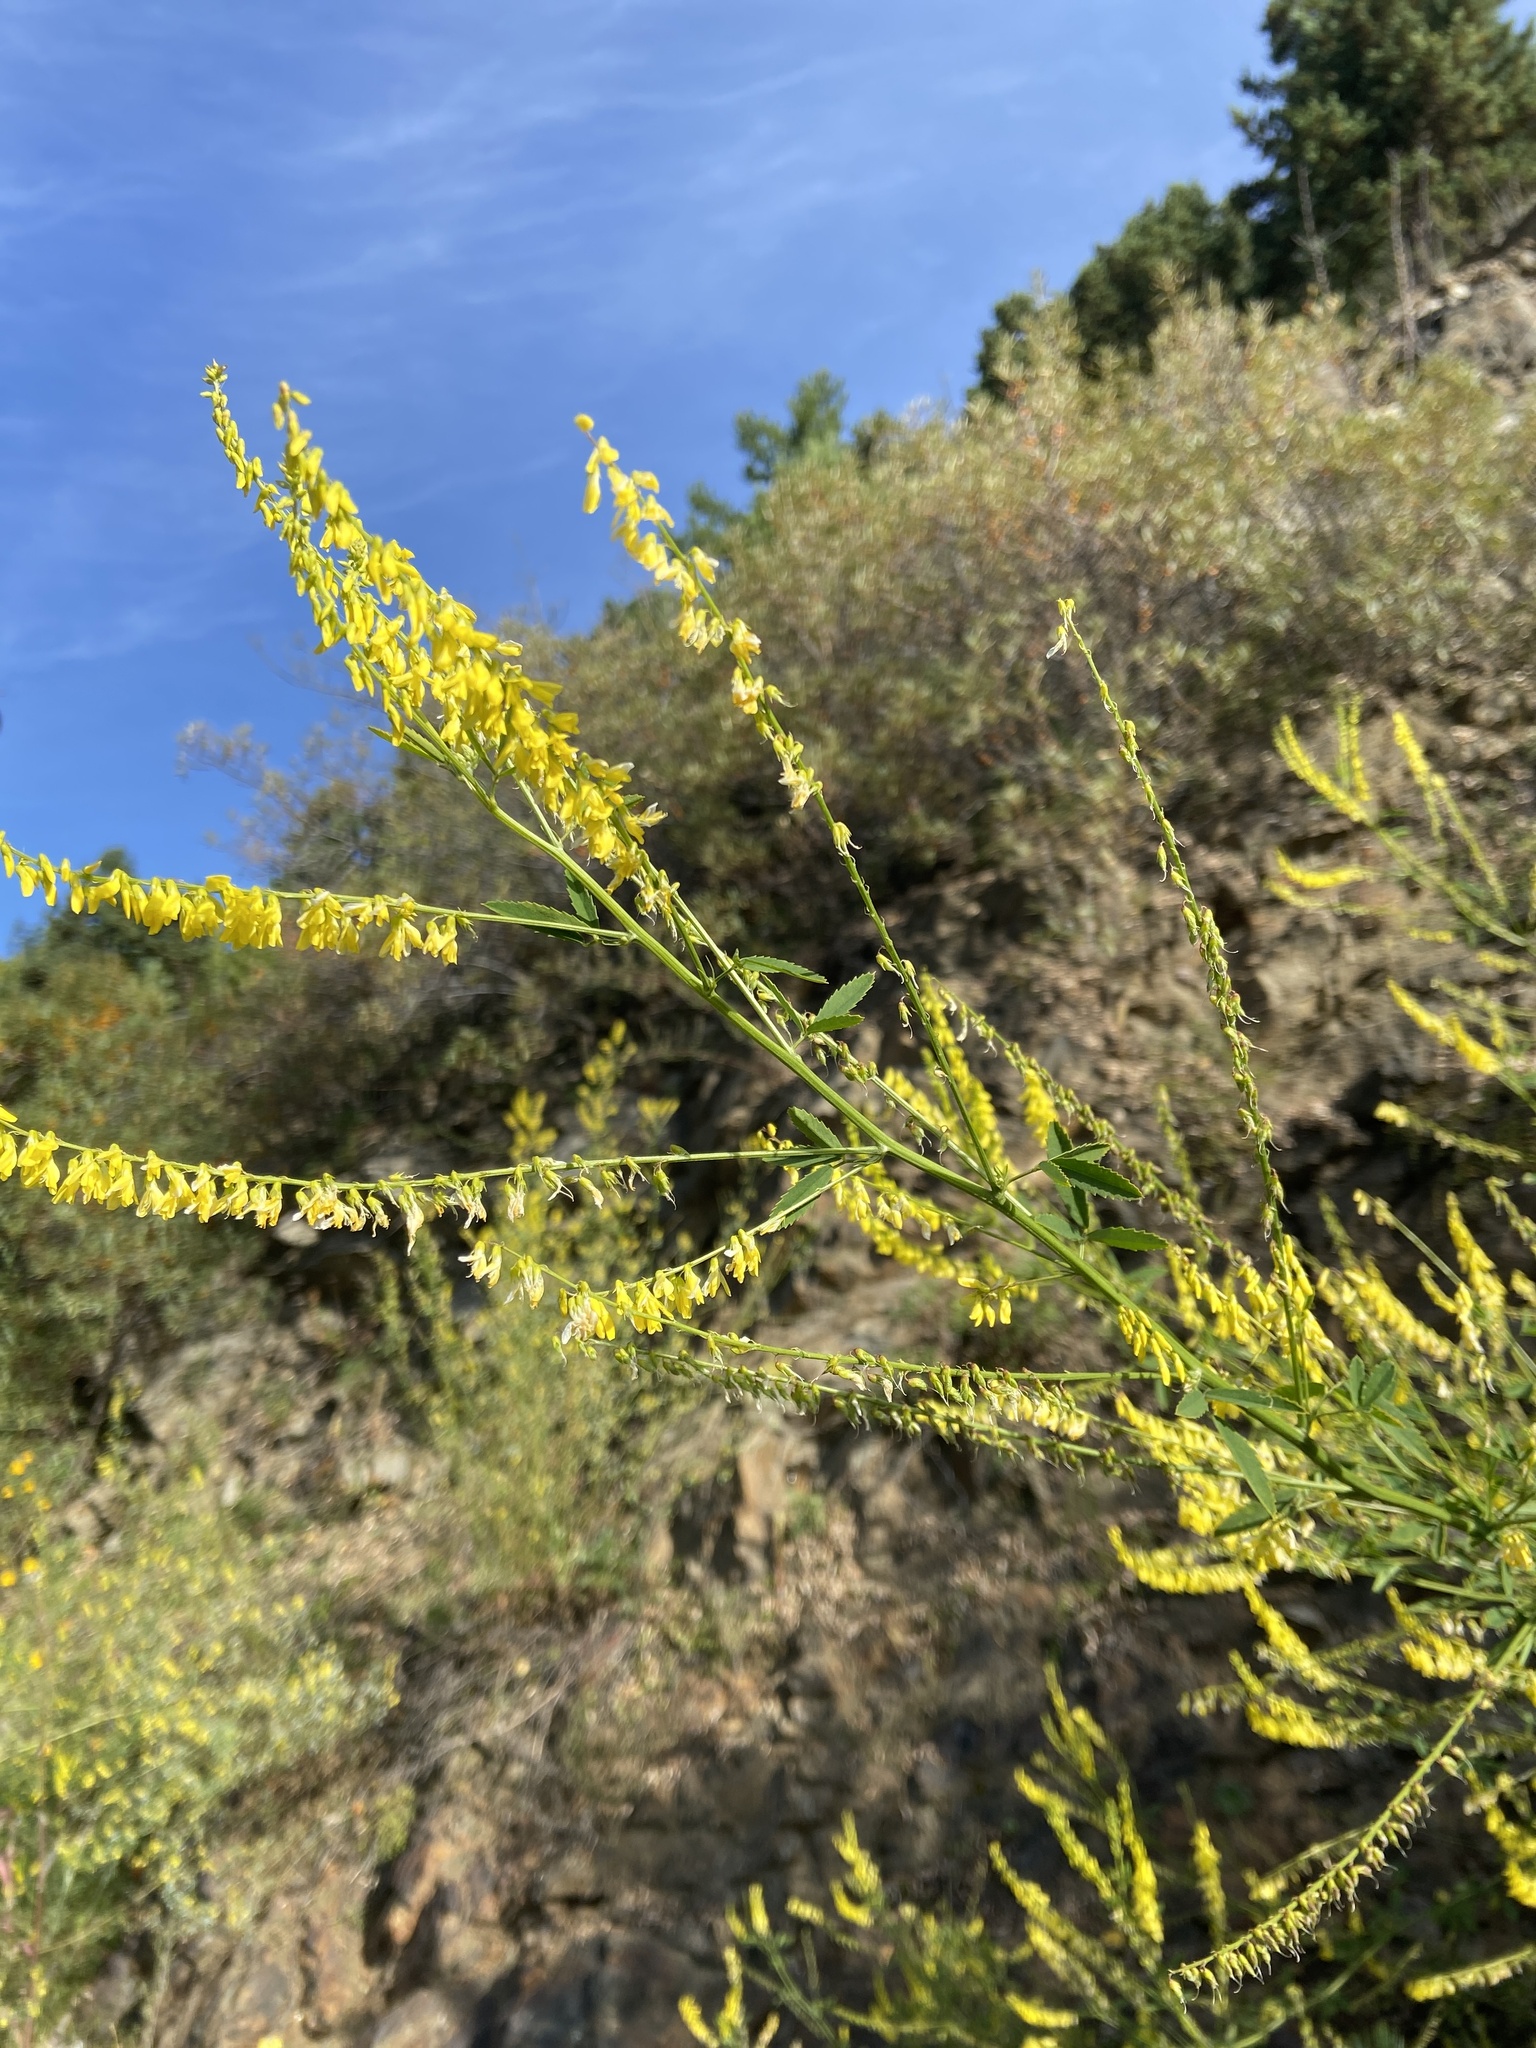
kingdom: Plantae
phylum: Tracheophyta
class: Magnoliopsida
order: Fabales
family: Fabaceae
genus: Melilotus
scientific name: Melilotus officinalis
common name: Sweetclover
